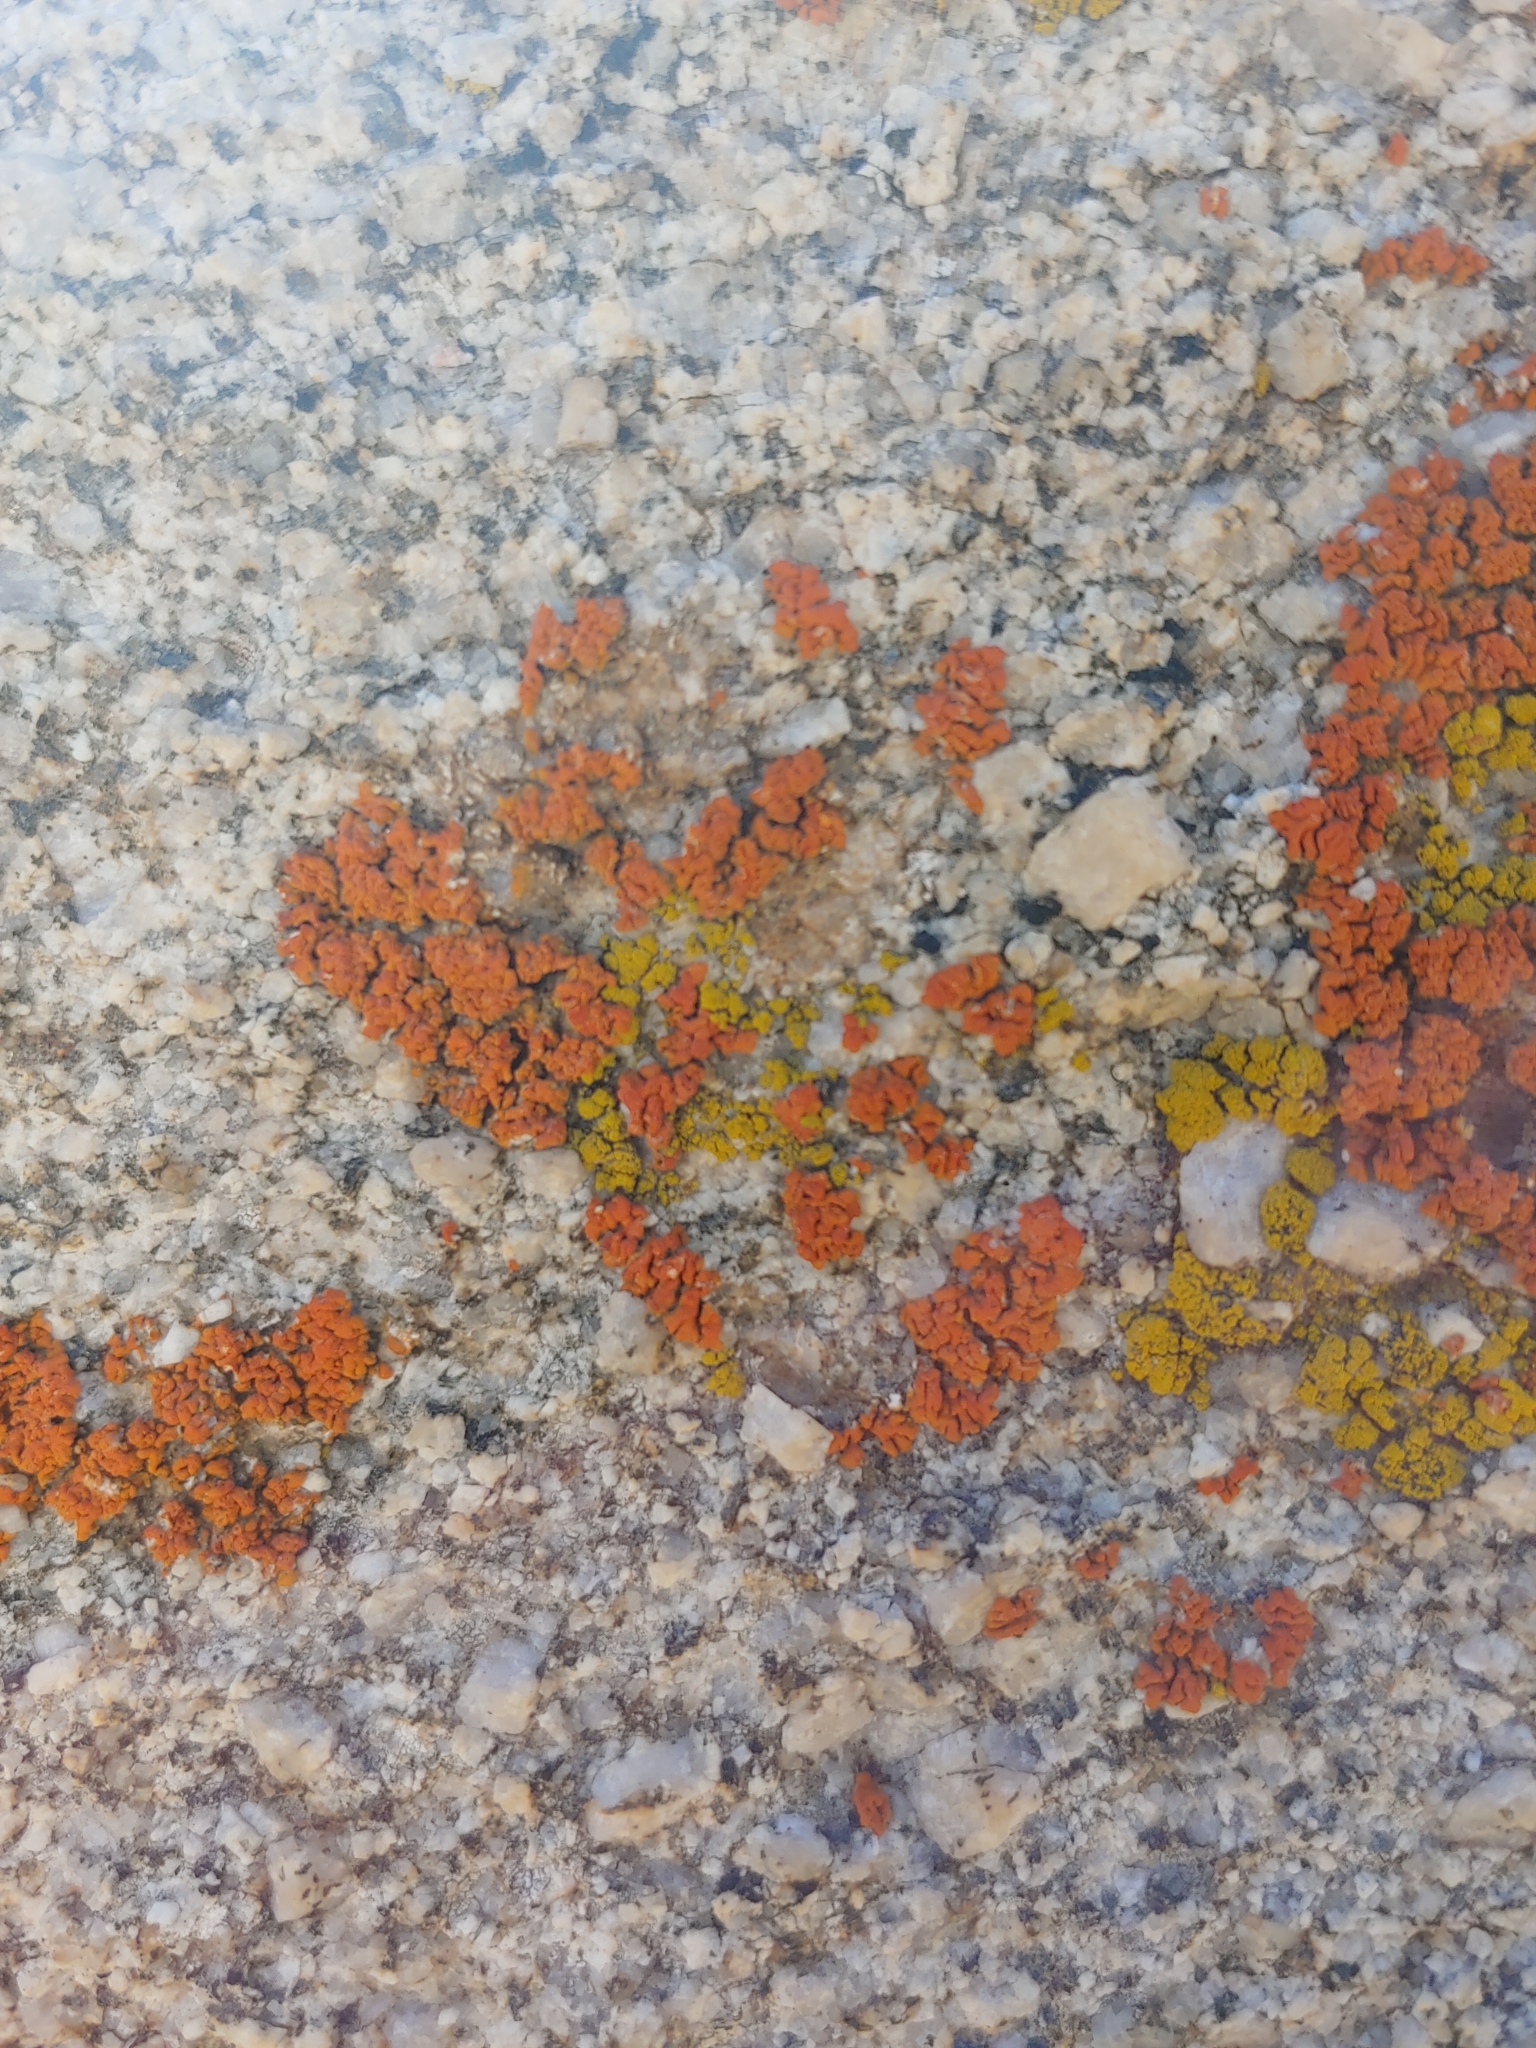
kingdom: Fungi
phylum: Ascomycota
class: Lecanoromycetes
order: Teloschistales
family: Teloschistaceae
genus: Xanthoria
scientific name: Xanthoria elegans
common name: Elegant sunburst lichen
